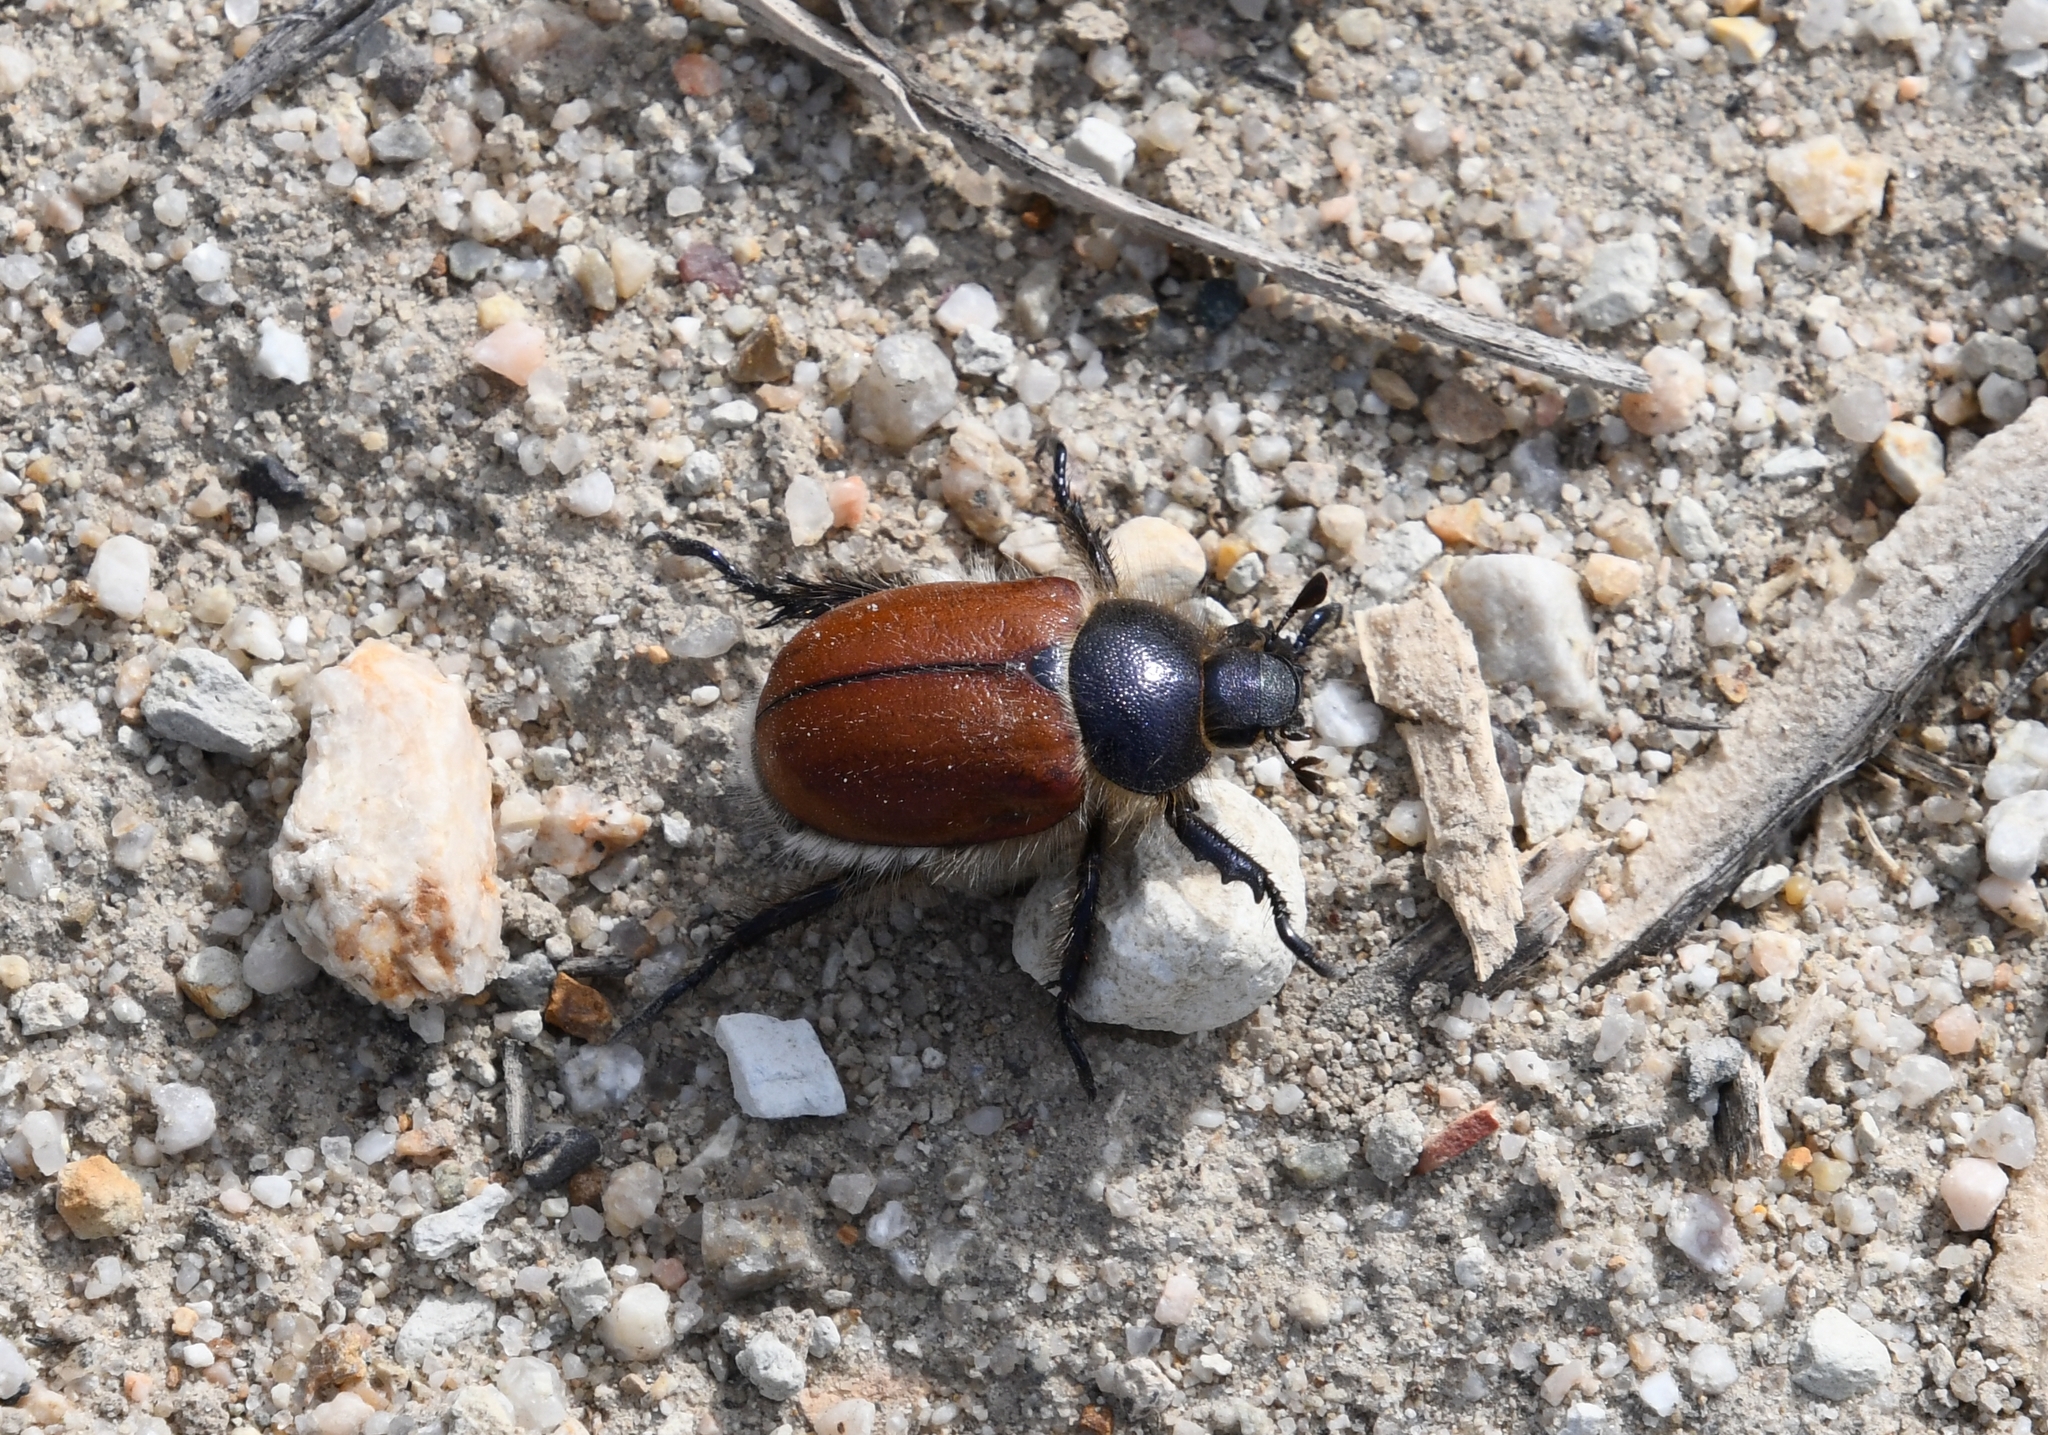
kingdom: Animalia
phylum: Arthropoda
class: Insecta
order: Coleoptera
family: Scarabaeidae
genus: Paracotalpa
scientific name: Paracotalpa ursina
